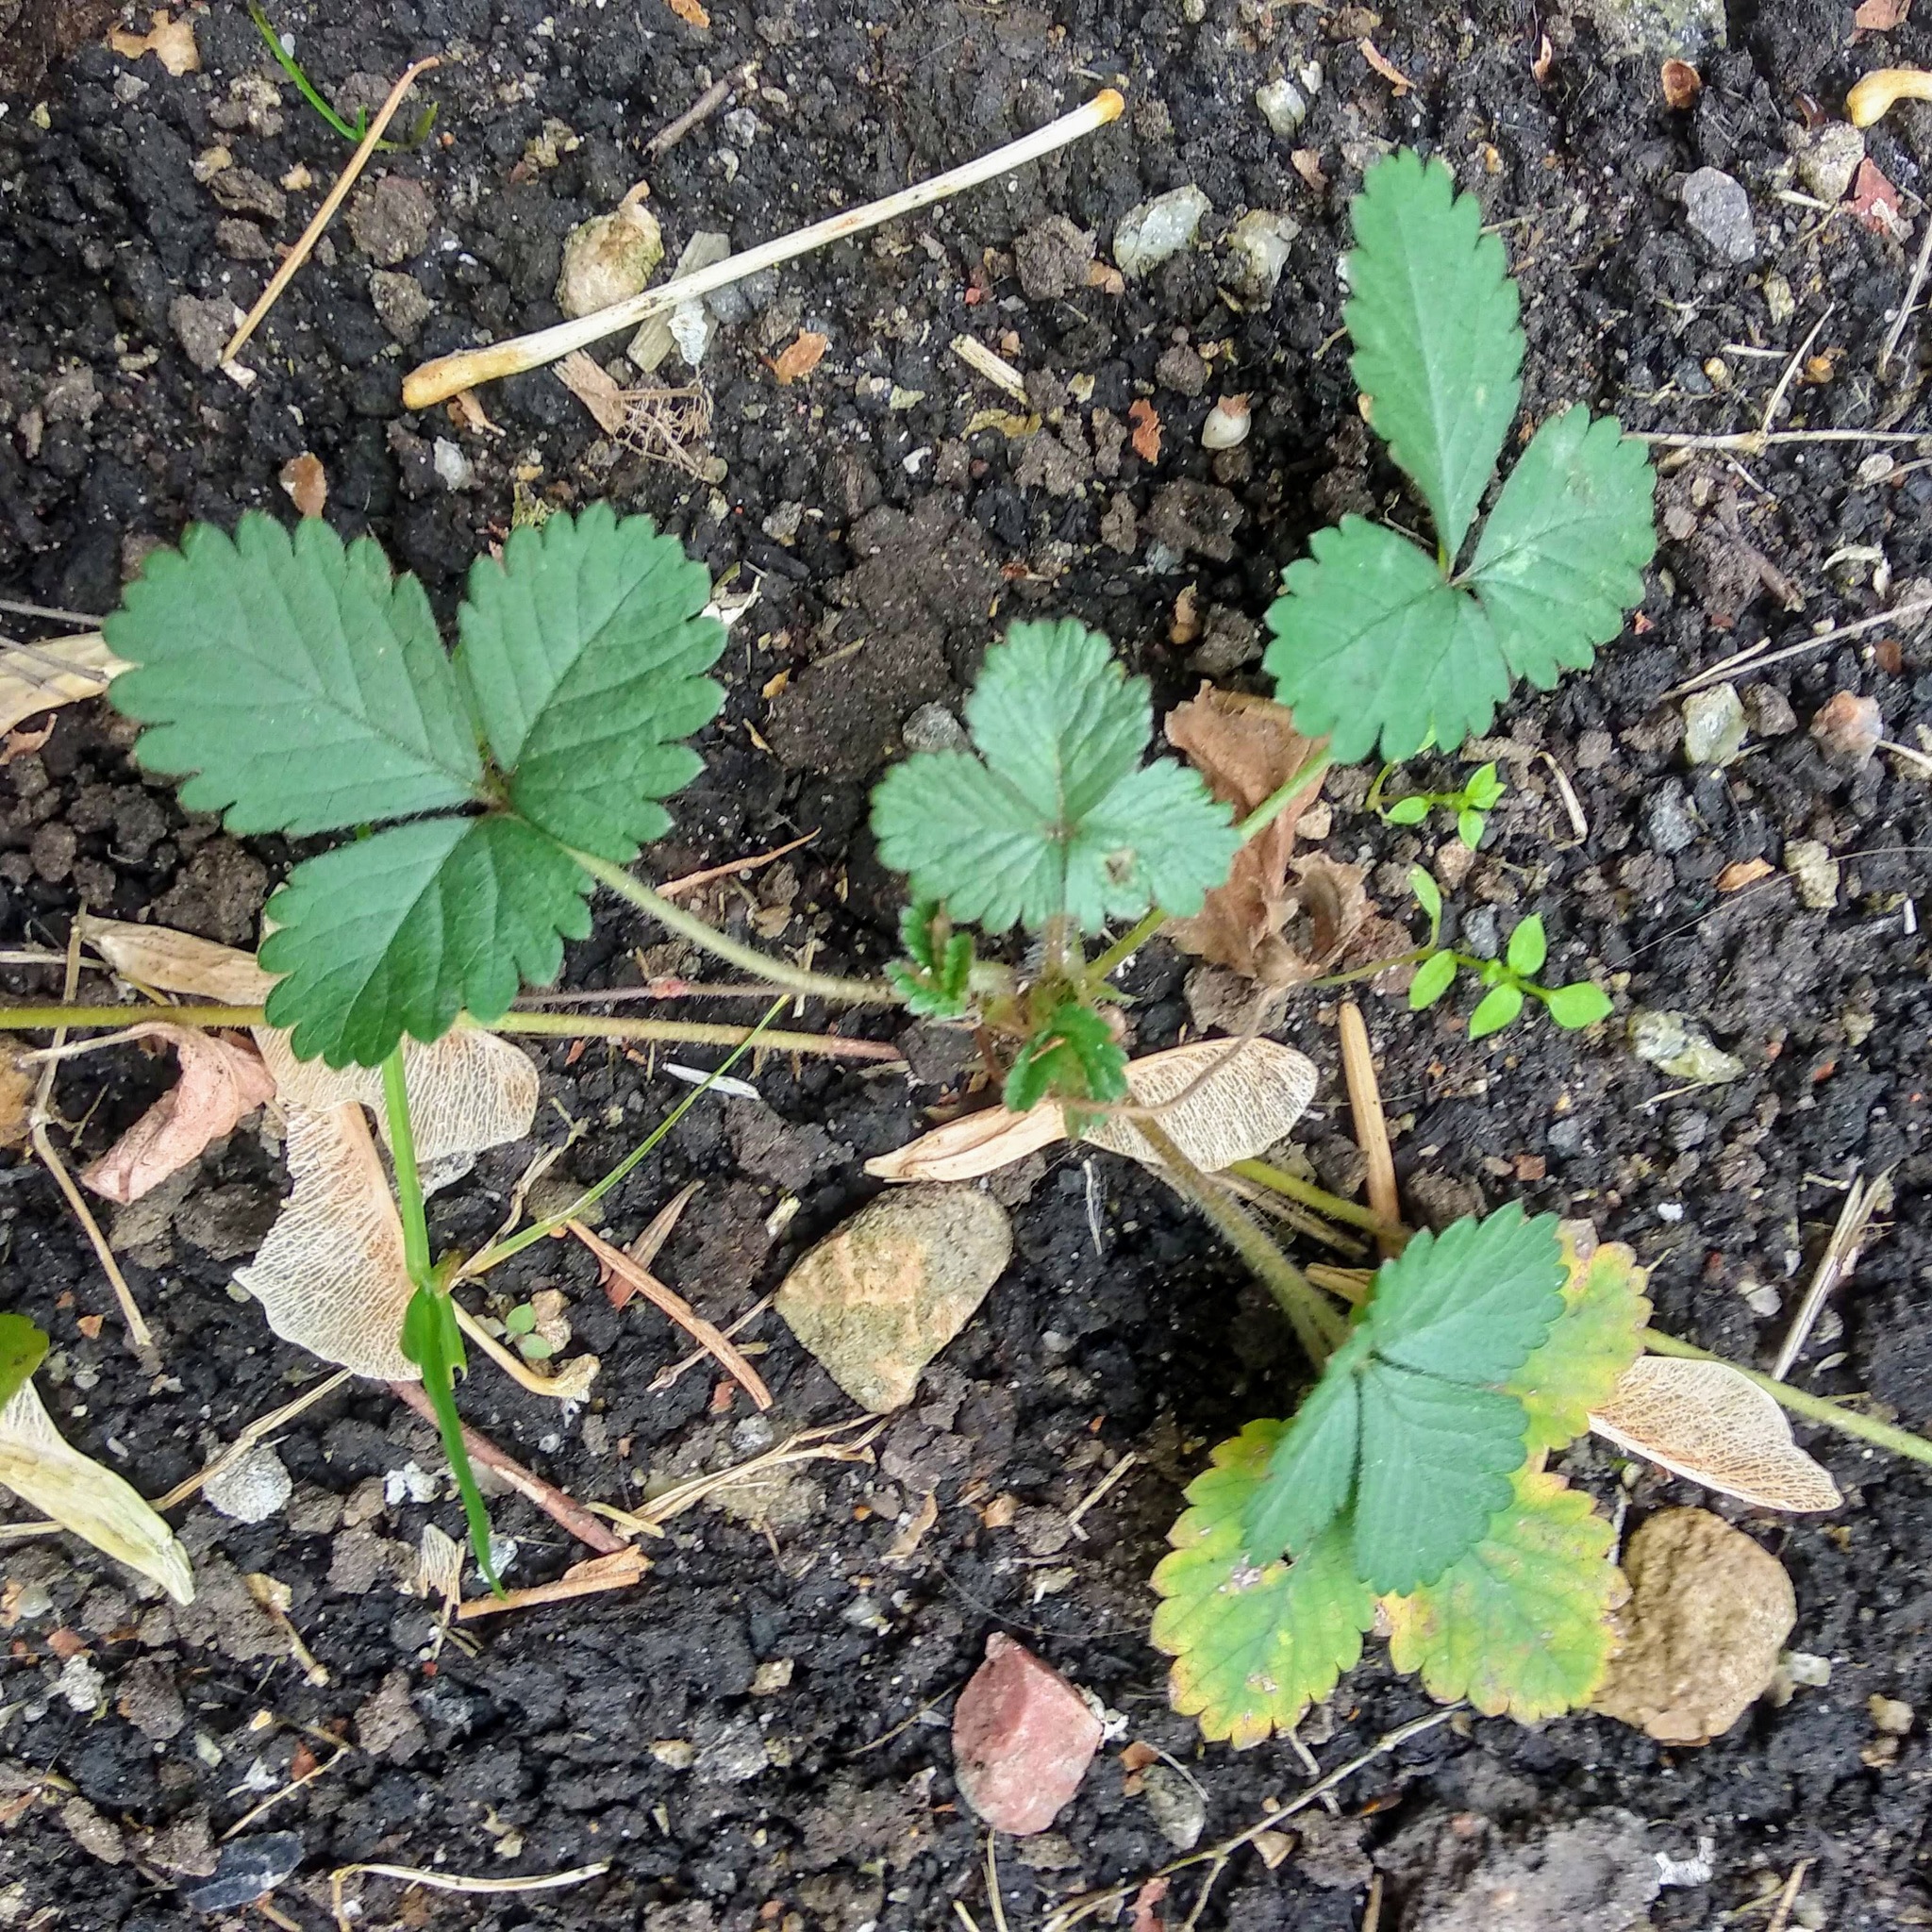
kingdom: Plantae
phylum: Tracheophyta
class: Magnoliopsida
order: Rosales
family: Rosaceae
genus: Potentilla
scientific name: Potentilla norvegica
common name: Ternate-leaved cinquefoil
